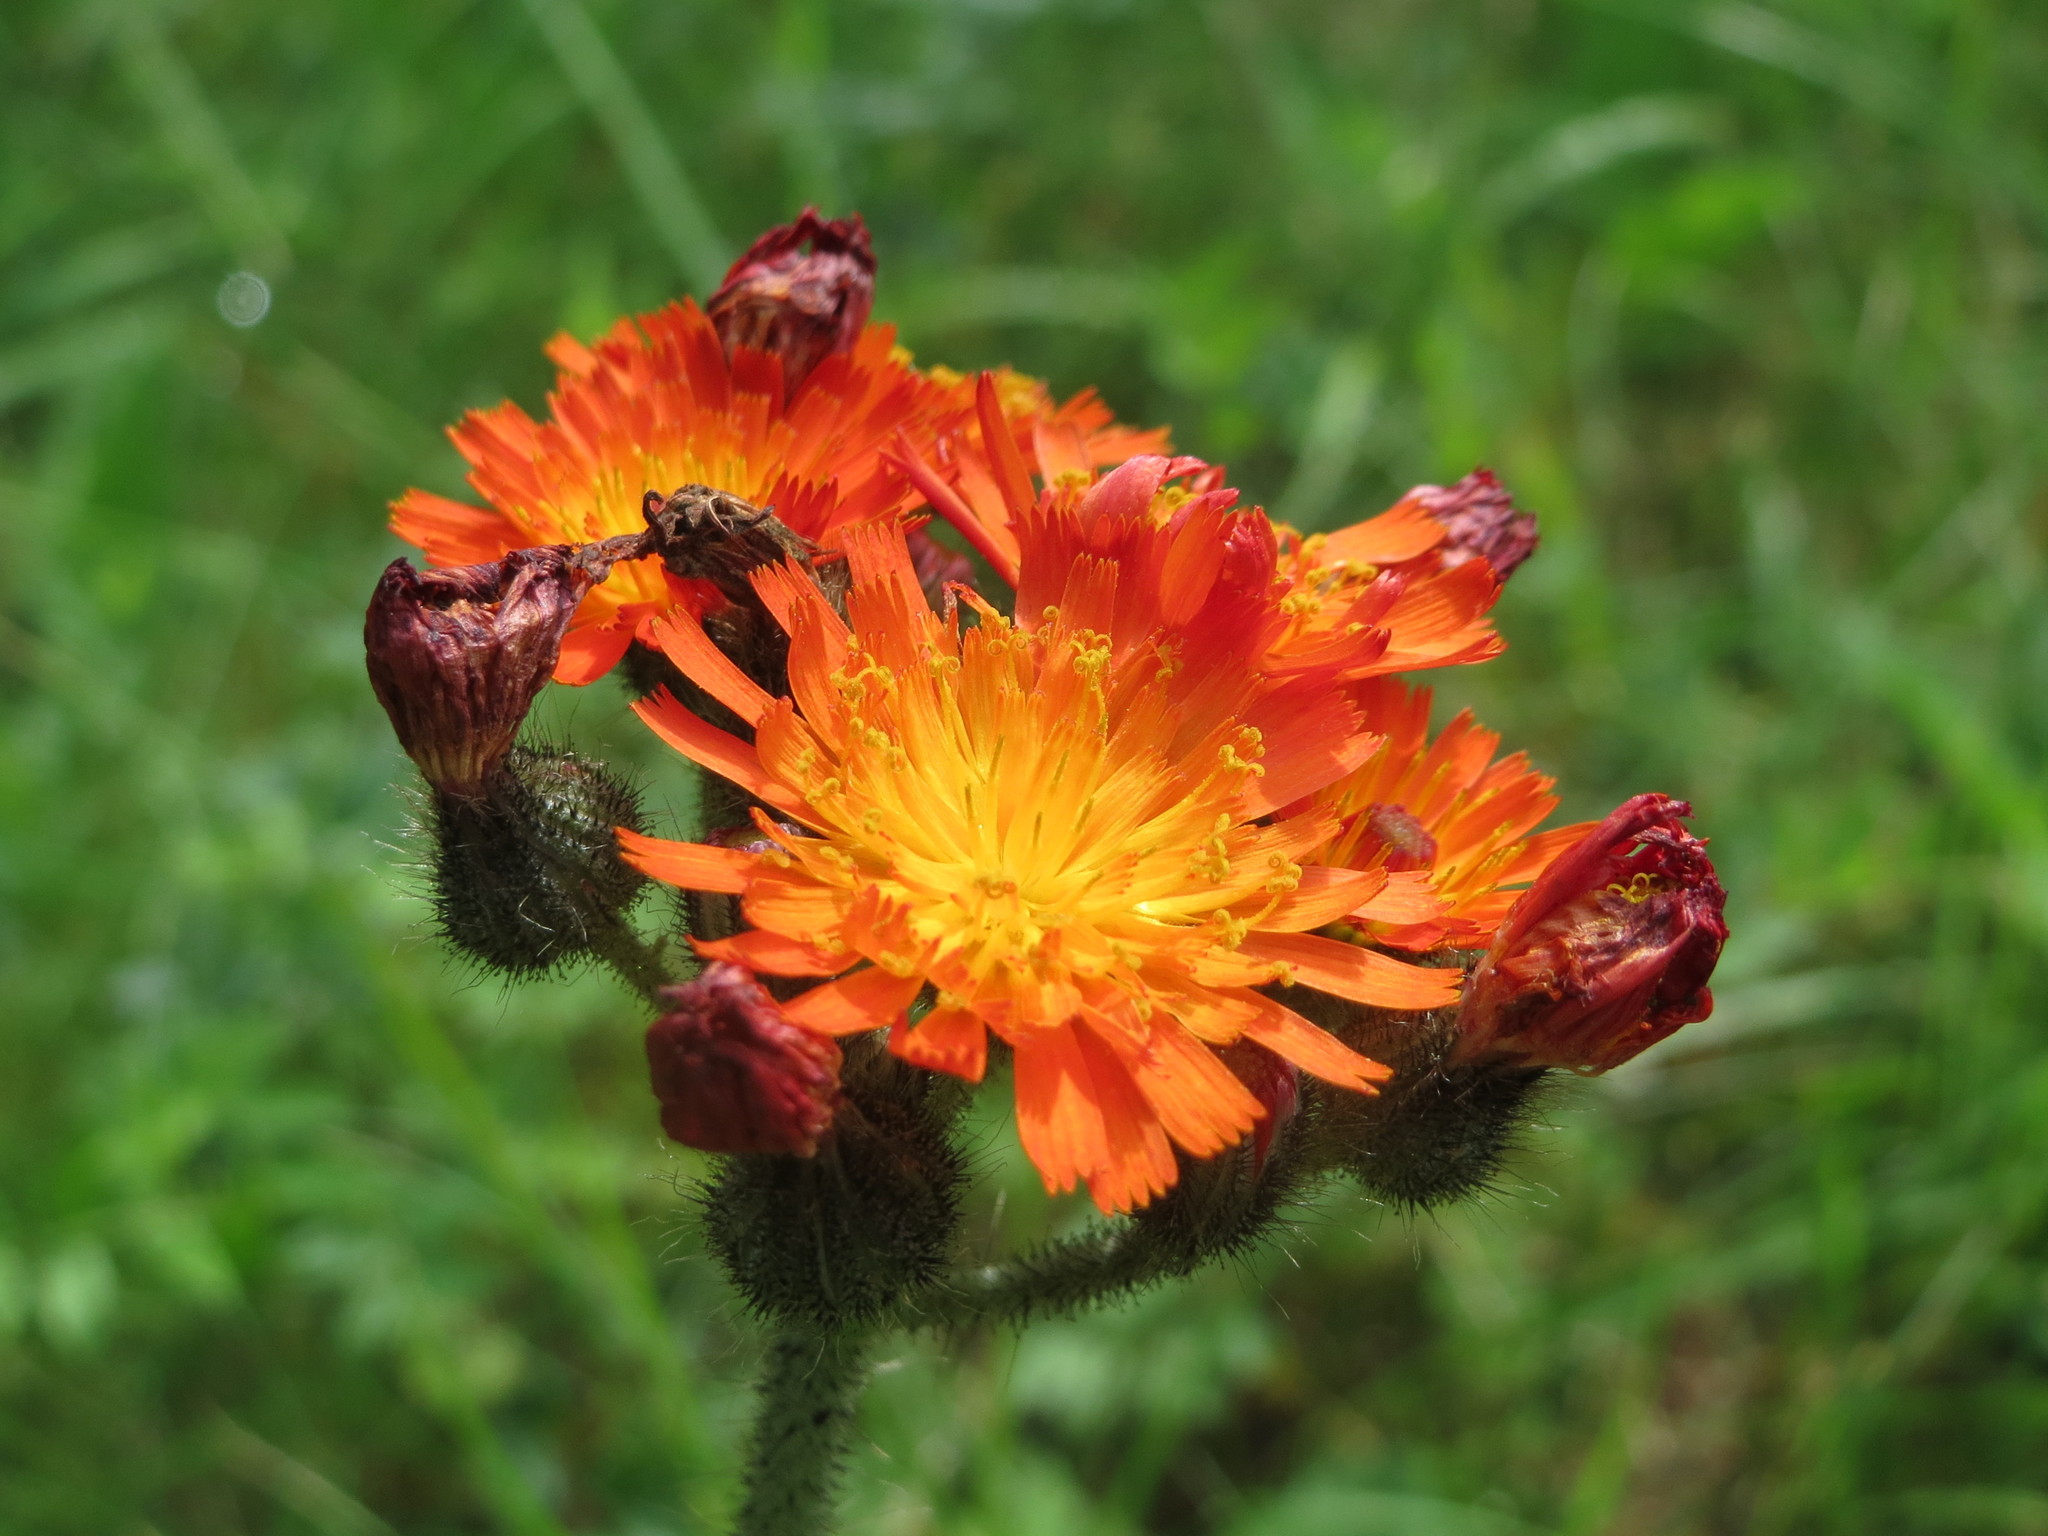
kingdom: Plantae
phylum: Tracheophyta
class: Magnoliopsida
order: Asterales
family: Asteraceae
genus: Pilosella
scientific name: Pilosella aurantiaca
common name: Fox-and-cubs
